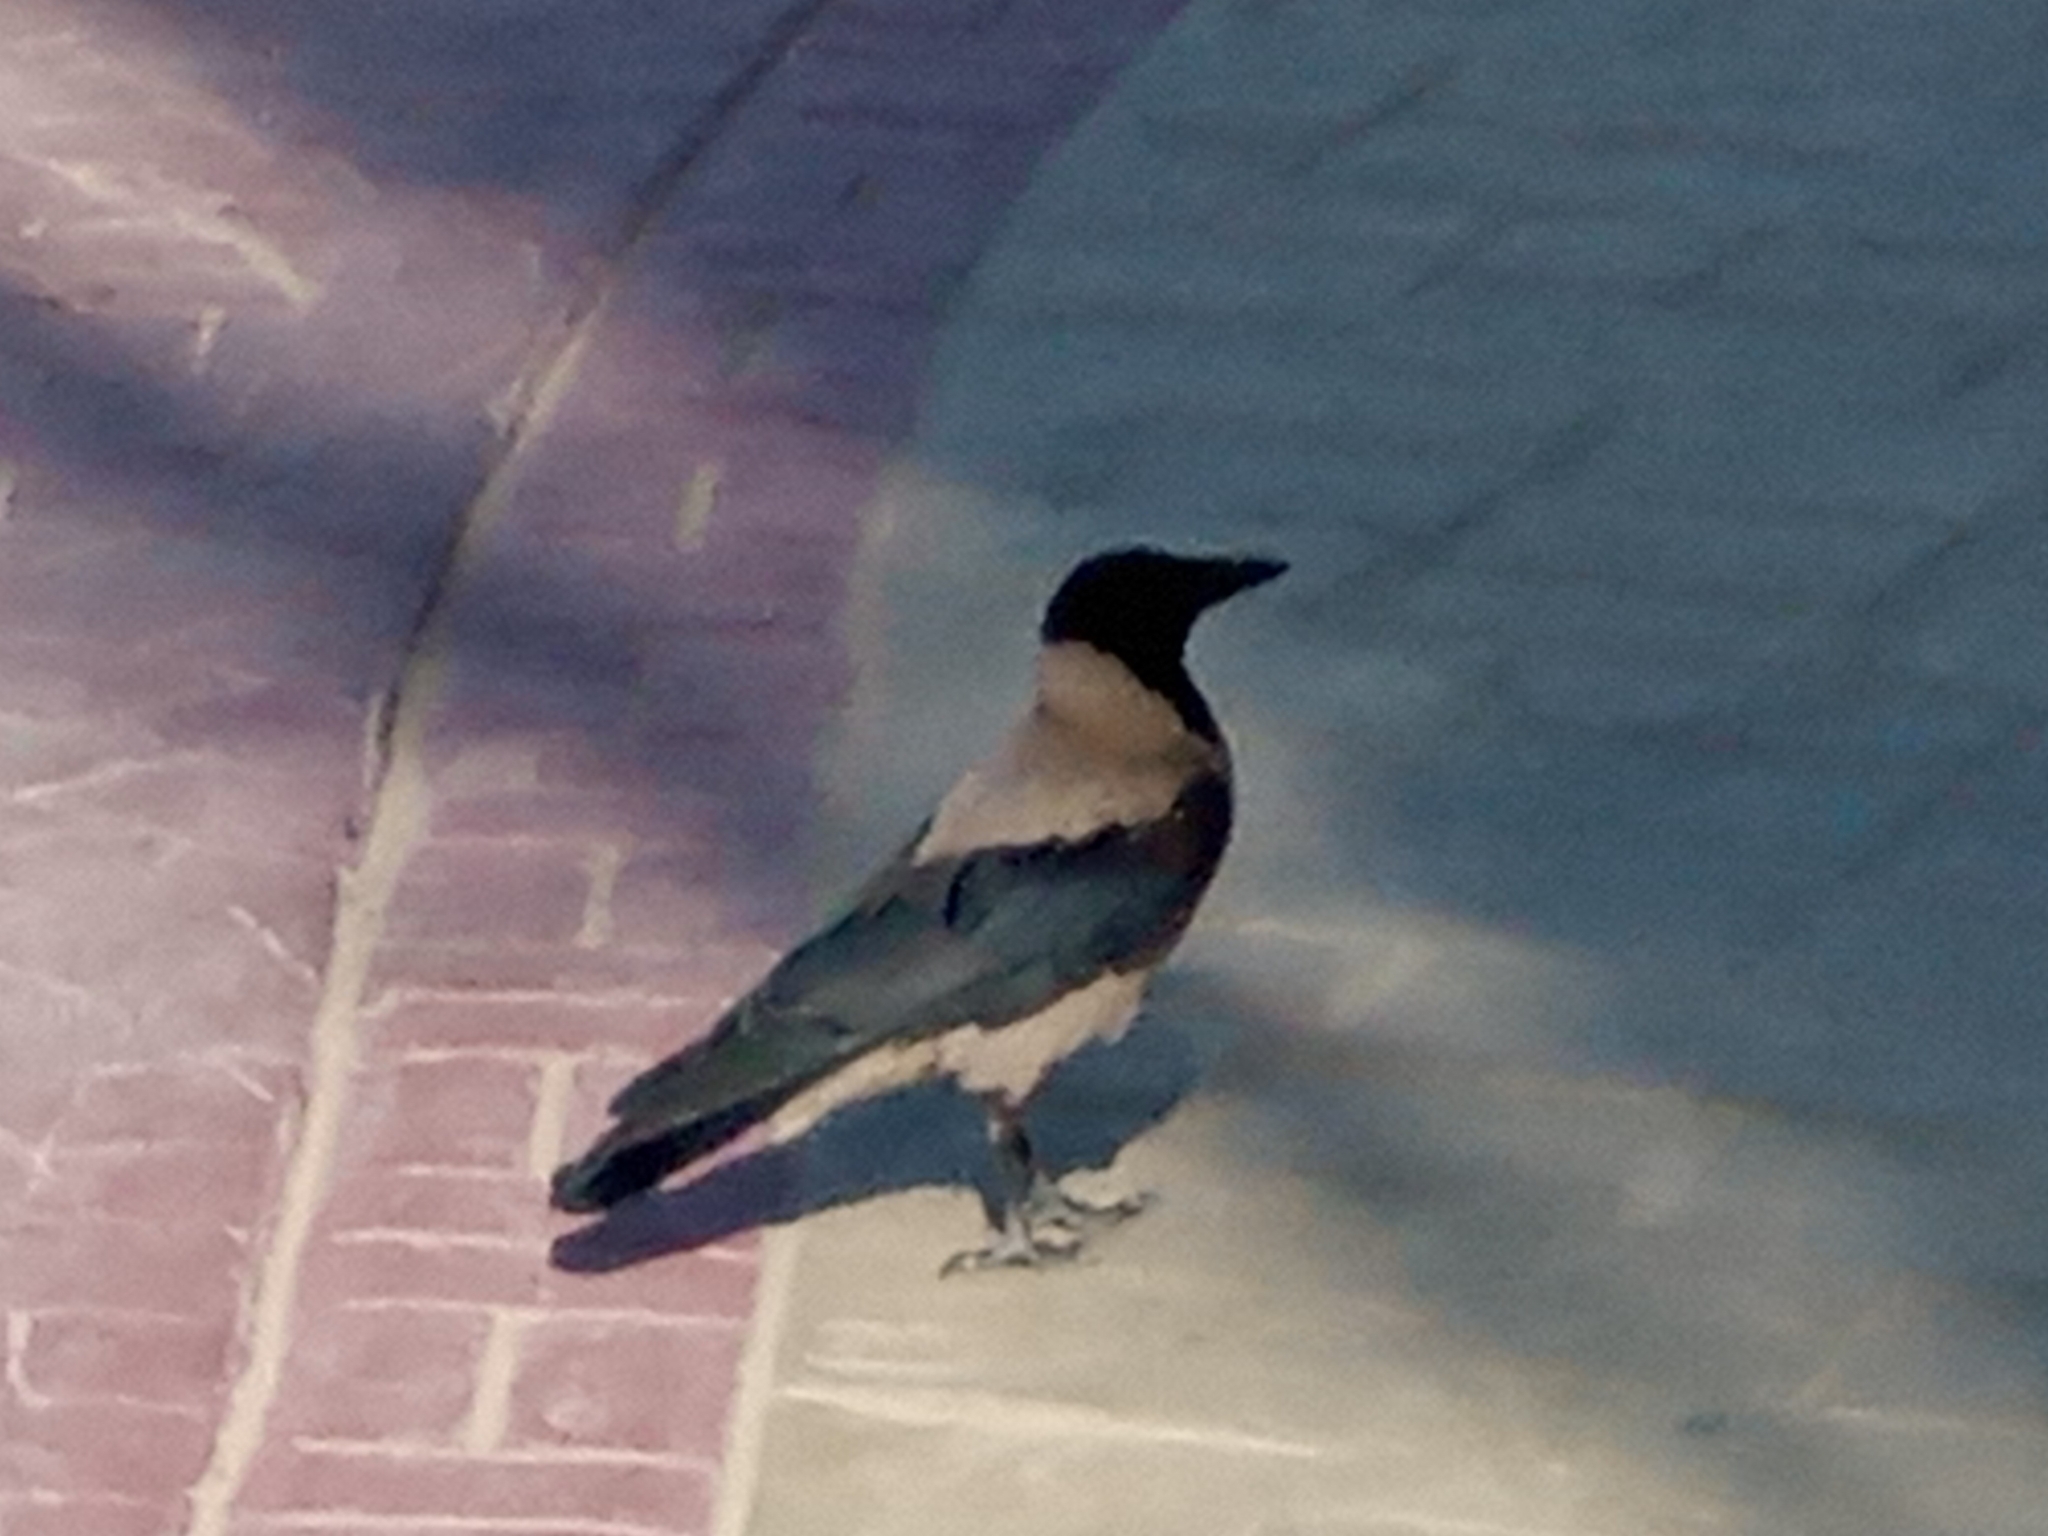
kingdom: Animalia
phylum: Chordata
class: Aves
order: Passeriformes
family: Corvidae
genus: Corvus
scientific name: Corvus cornix
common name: Hooded crow
